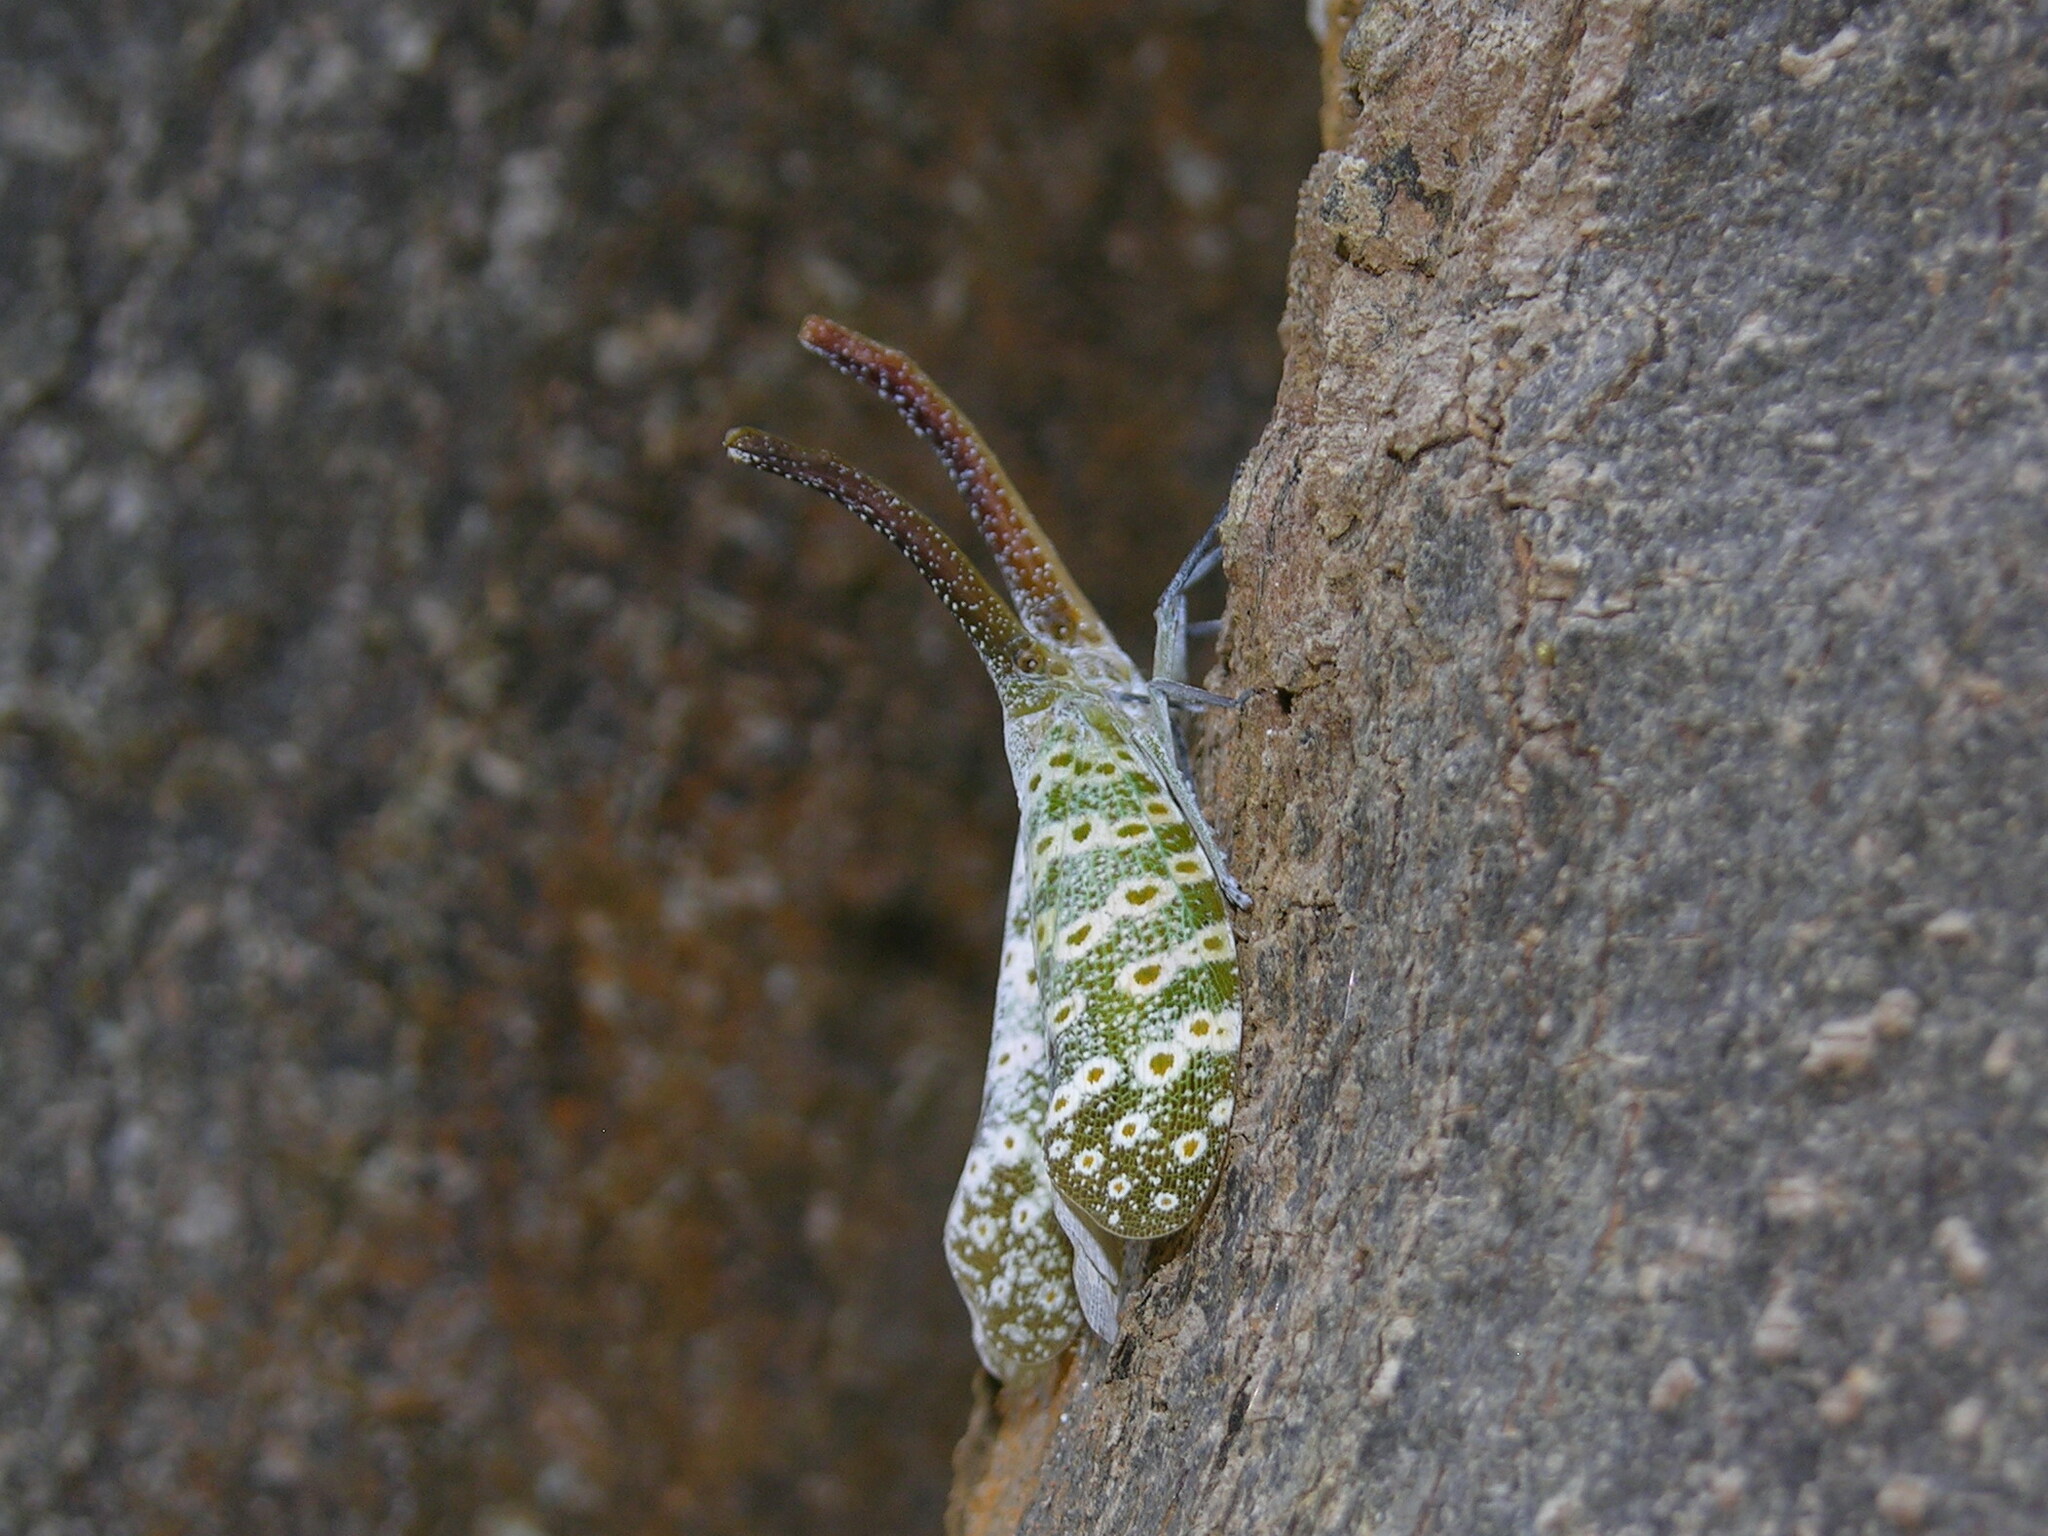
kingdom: Animalia
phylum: Arthropoda
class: Insecta
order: Hemiptera
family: Fulgoridae
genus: Pyrops
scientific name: Pyrops oculatus
